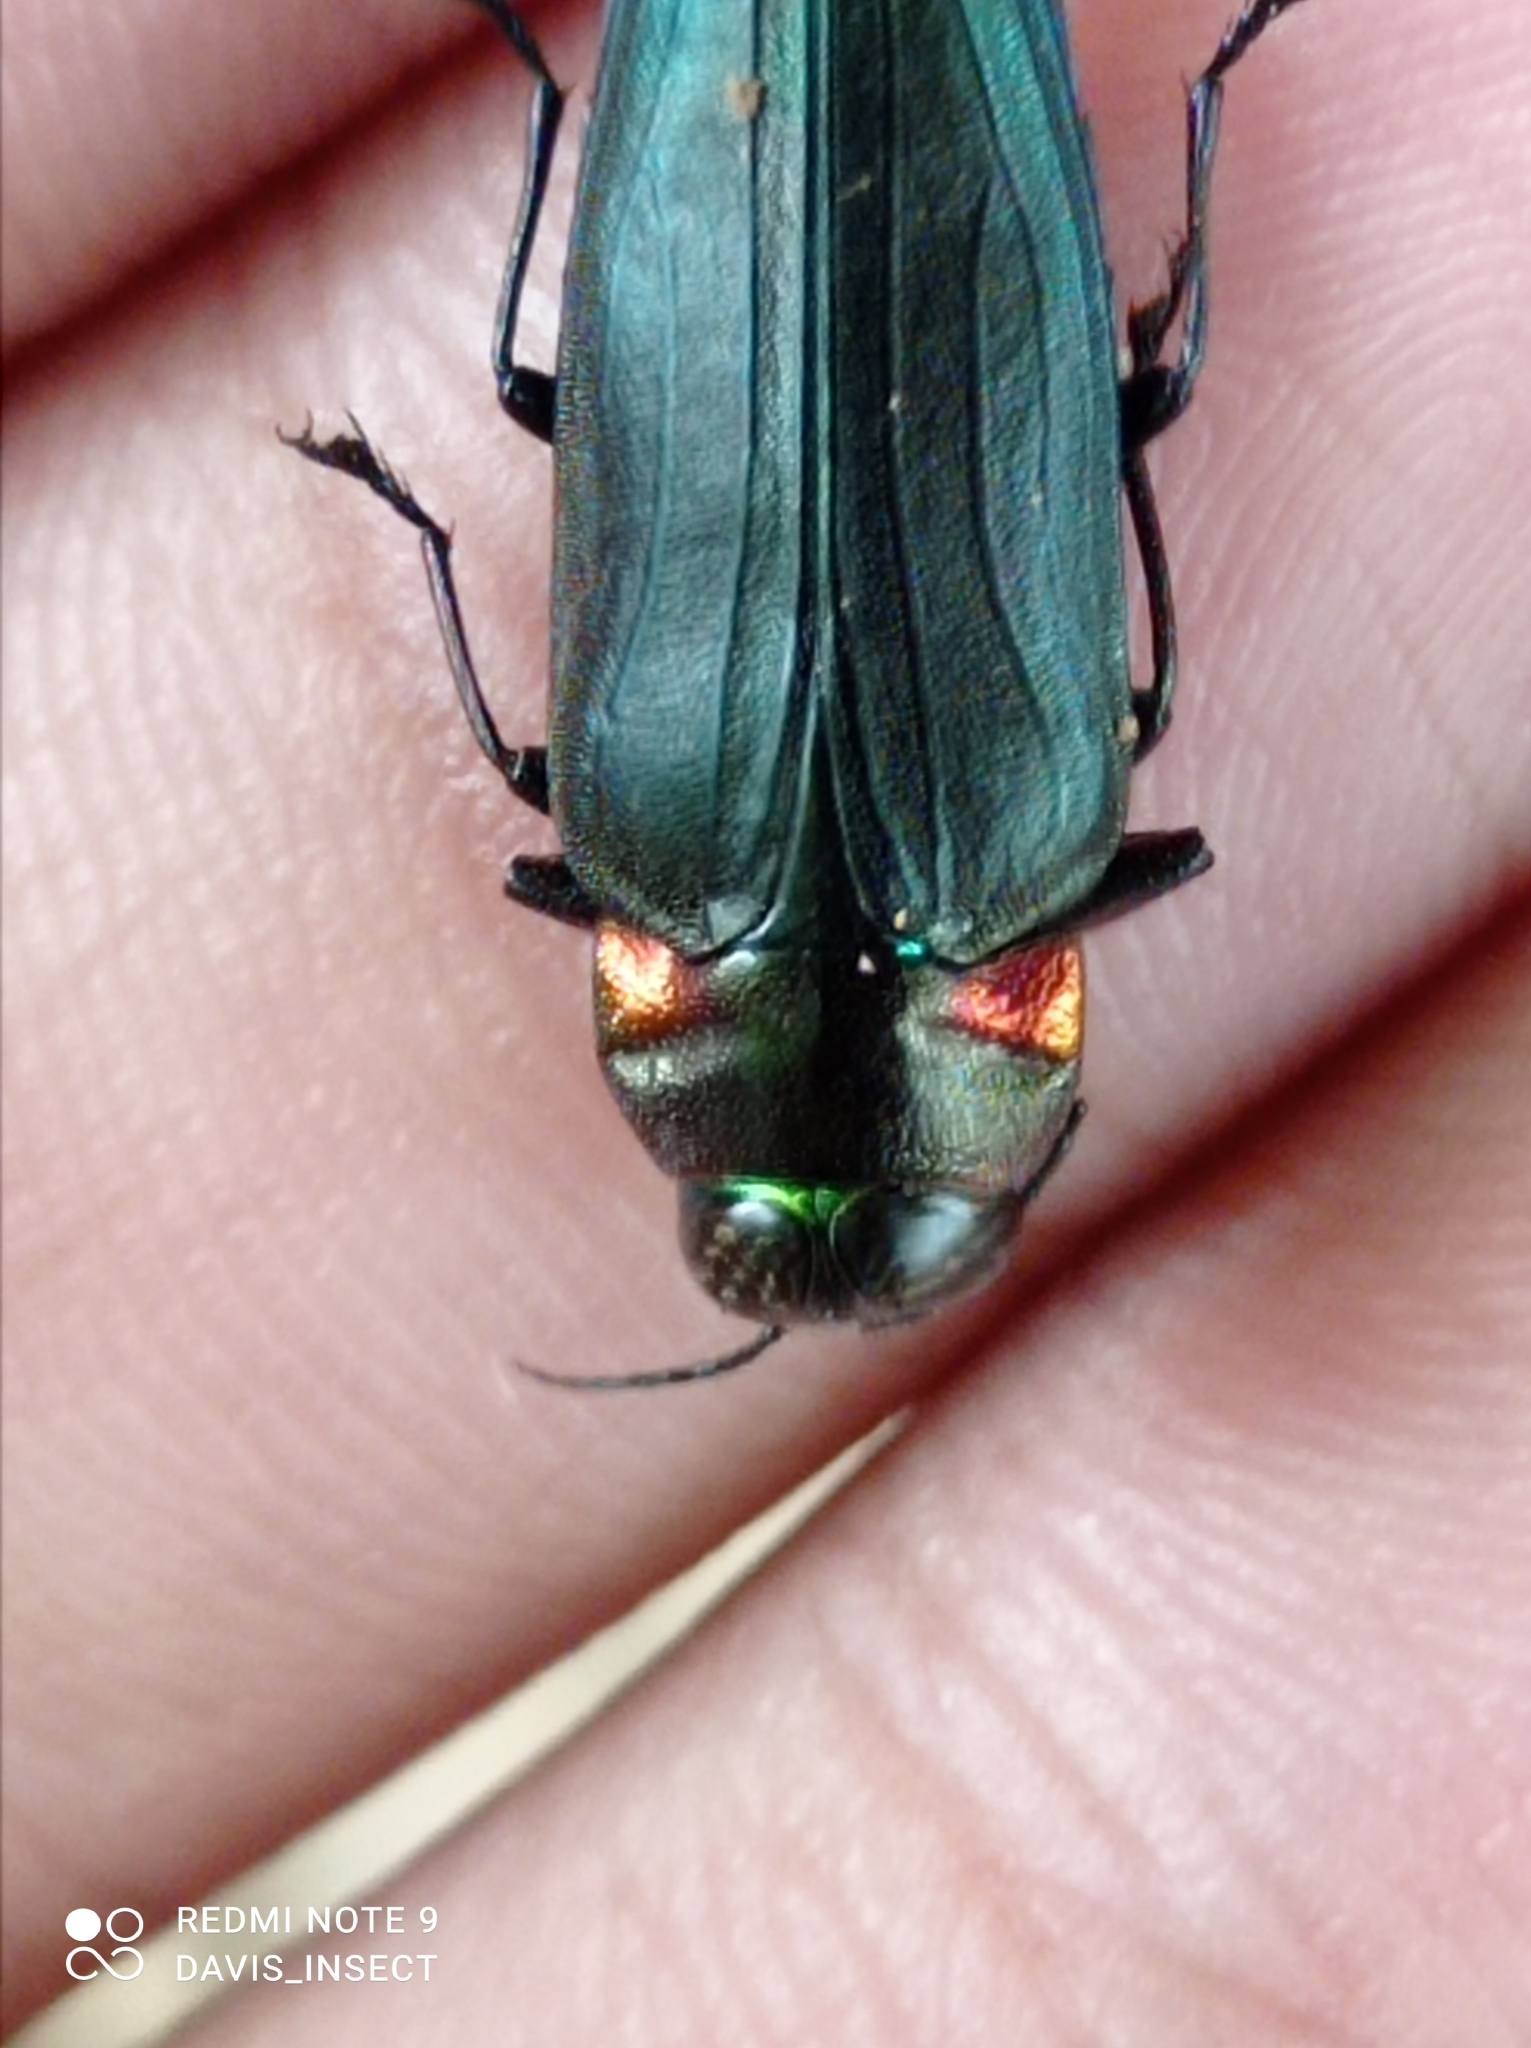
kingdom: Animalia
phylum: Arthropoda
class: Insecta
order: Coleoptera
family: Buprestidae
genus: Belionota
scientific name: Belionota prasina
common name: Jewel beetle
